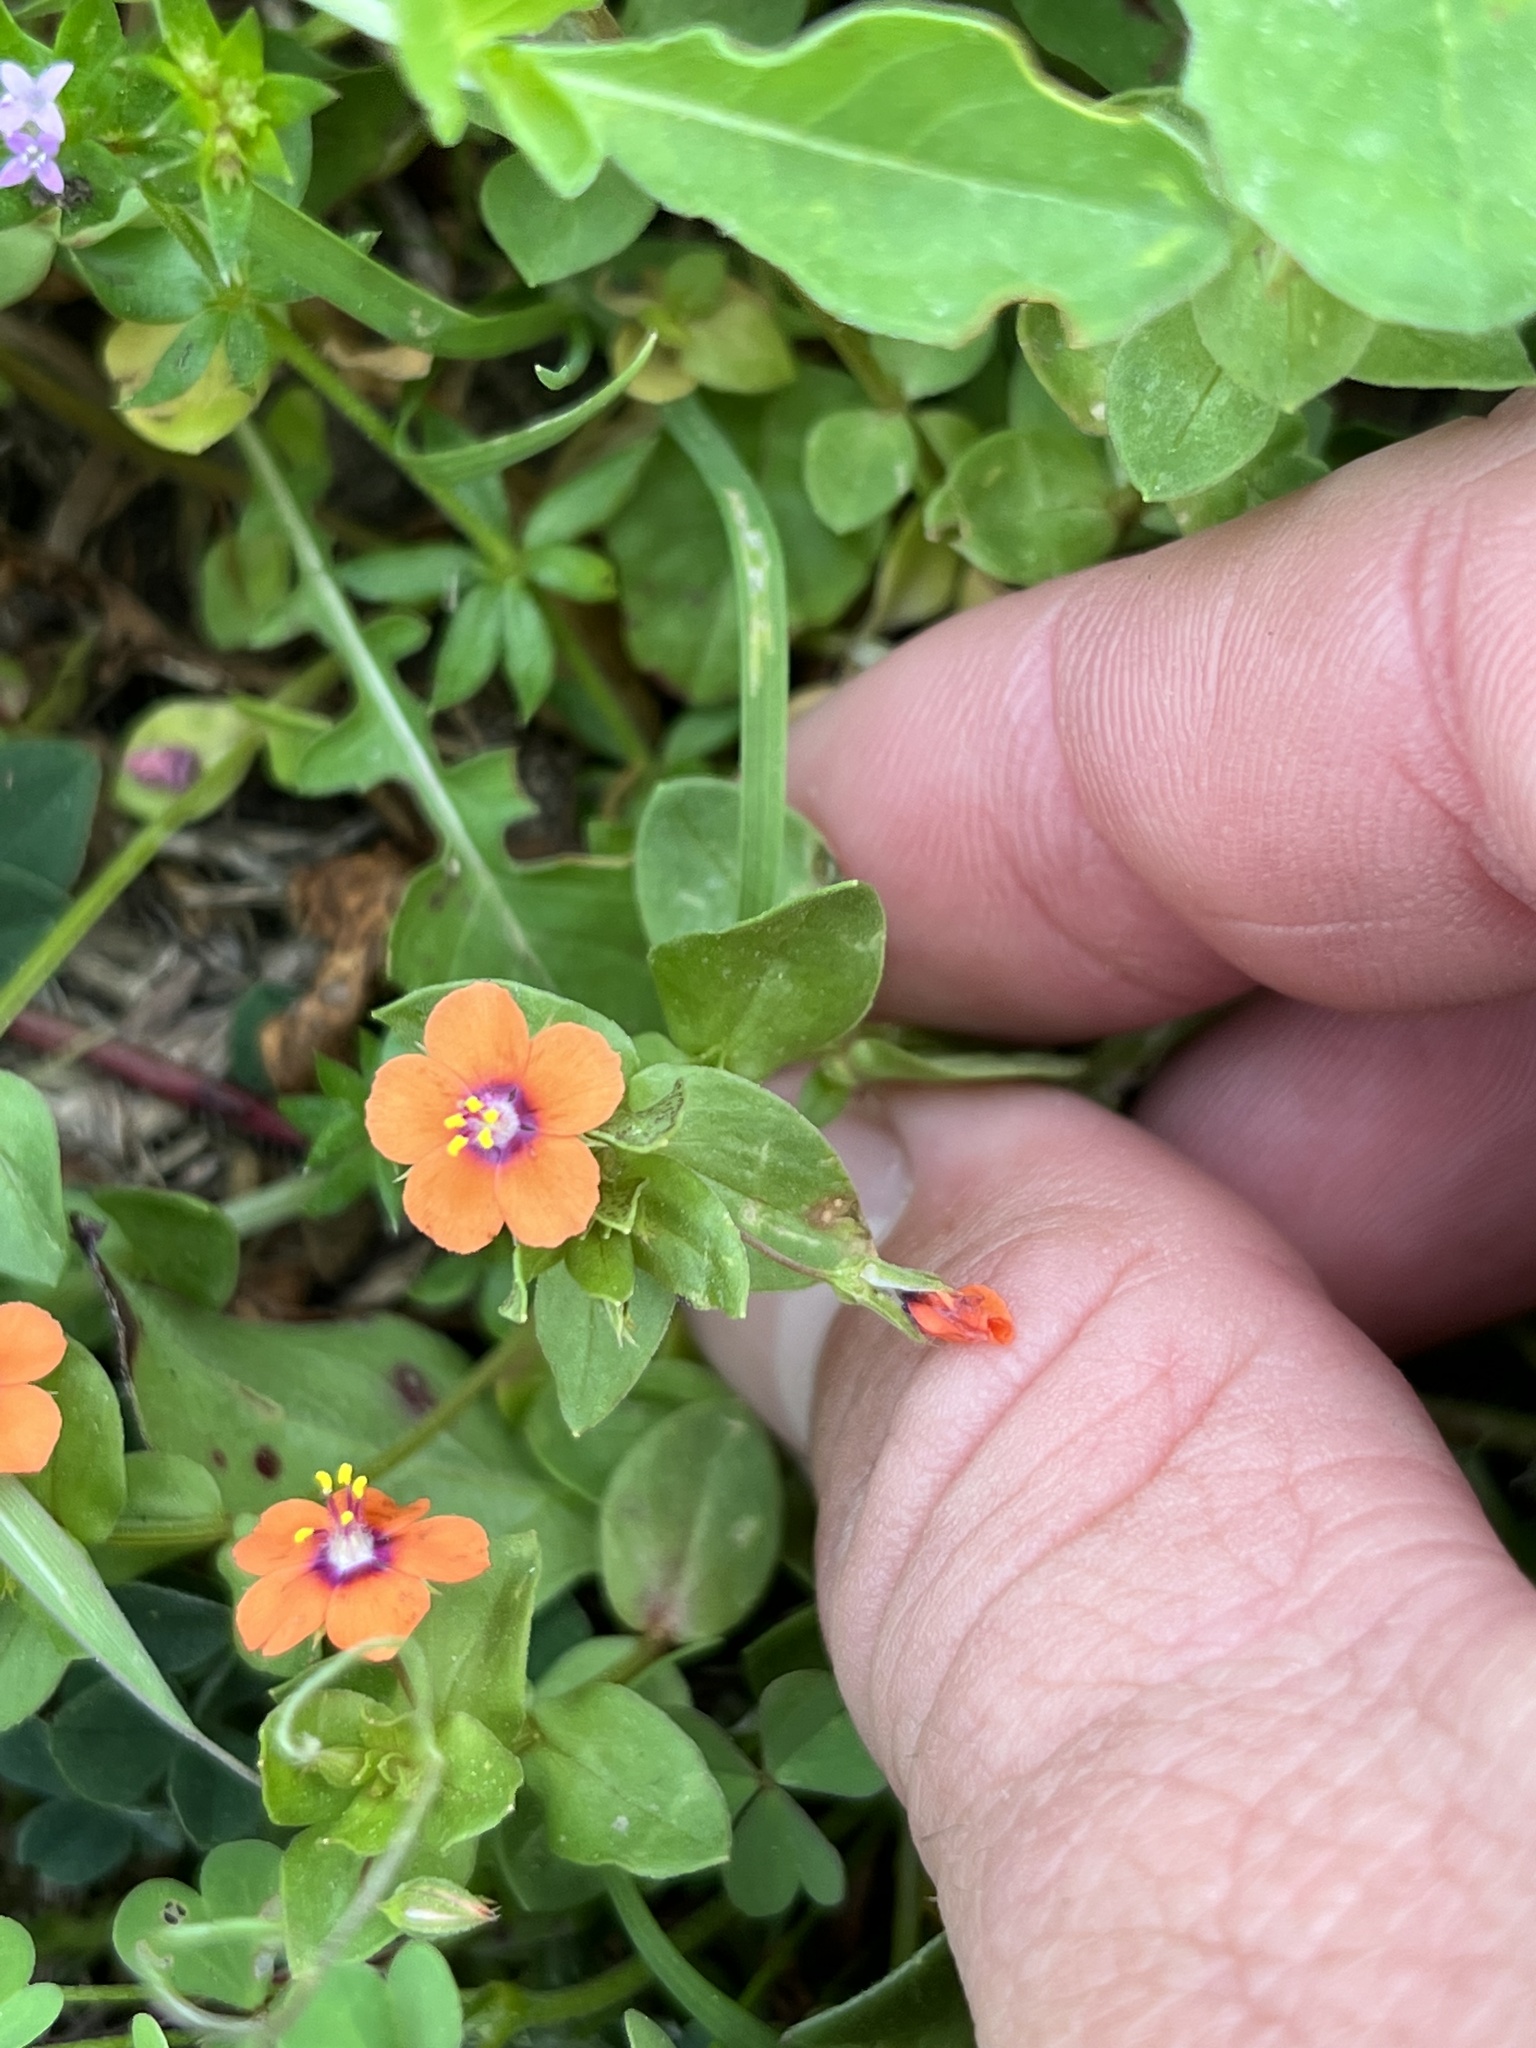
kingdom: Plantae
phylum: Tracheophyta
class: Magnoliopsida
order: Ericales
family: Primulaceae
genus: Lysimachia
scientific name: Lysimachia arvensis
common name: Scarlet pimpernel
